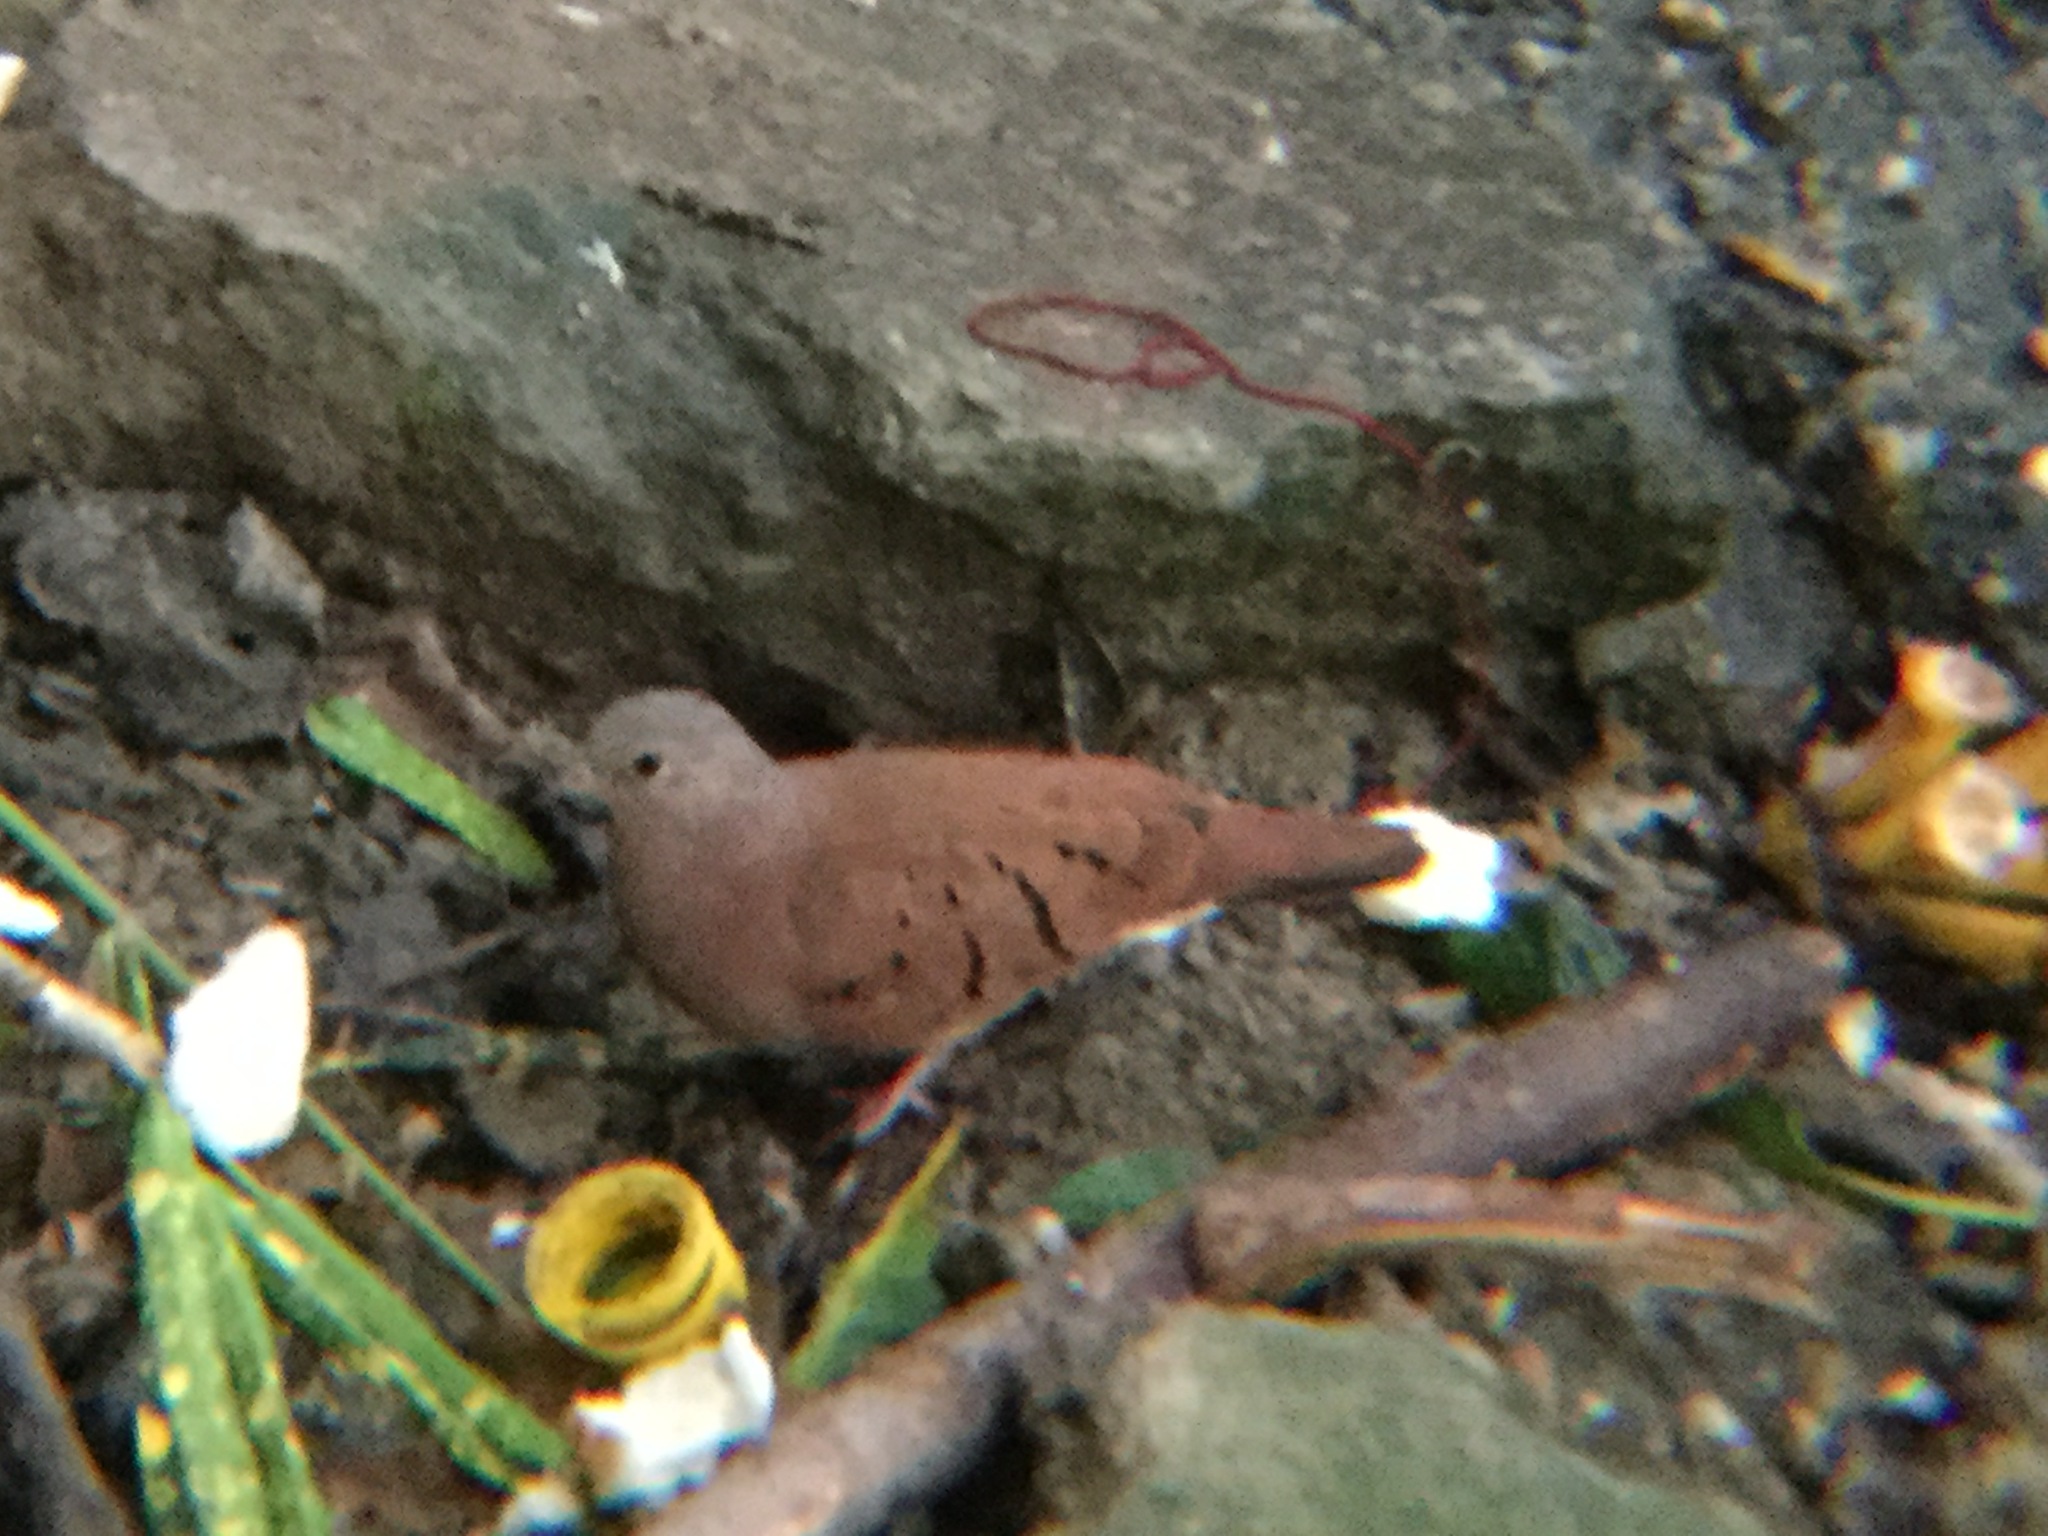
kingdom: Animalia
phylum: Chordata
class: Aves
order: Columbiformes
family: Columbidae
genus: Columbina
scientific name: Columbina talpacoti
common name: Ruddy ground dove
